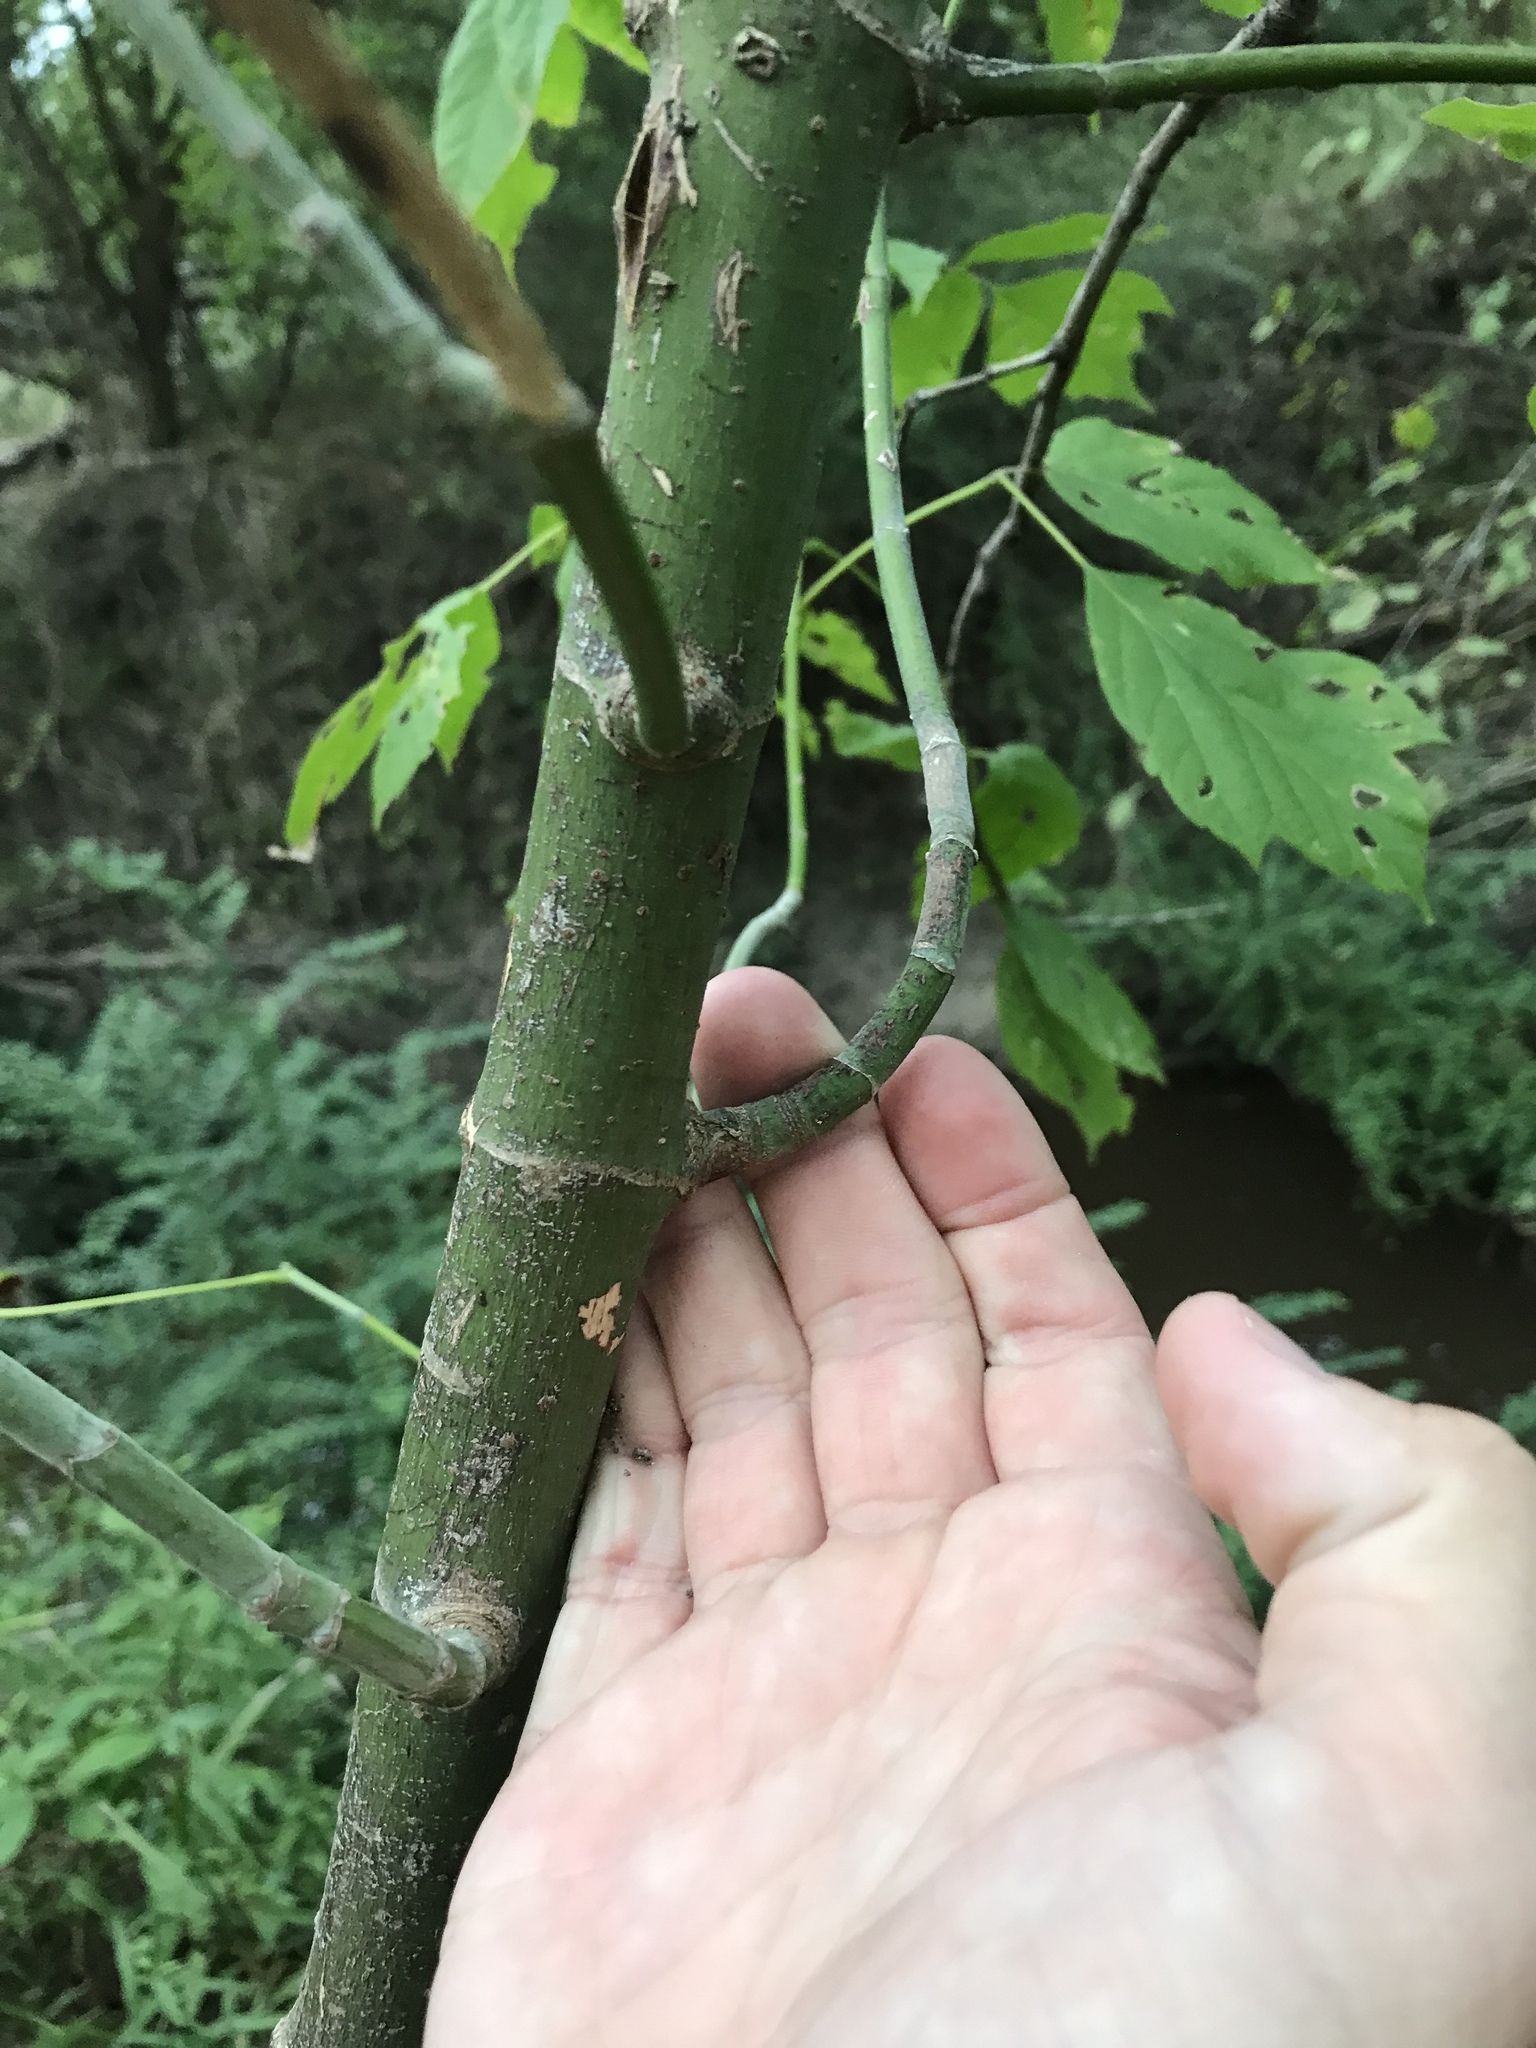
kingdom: Plantae
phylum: Tracheophyta
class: Magnoliopsida
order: Sapindales
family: Sapindaceae
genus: Acer
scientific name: Acer negundo
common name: Ashleaf maple
